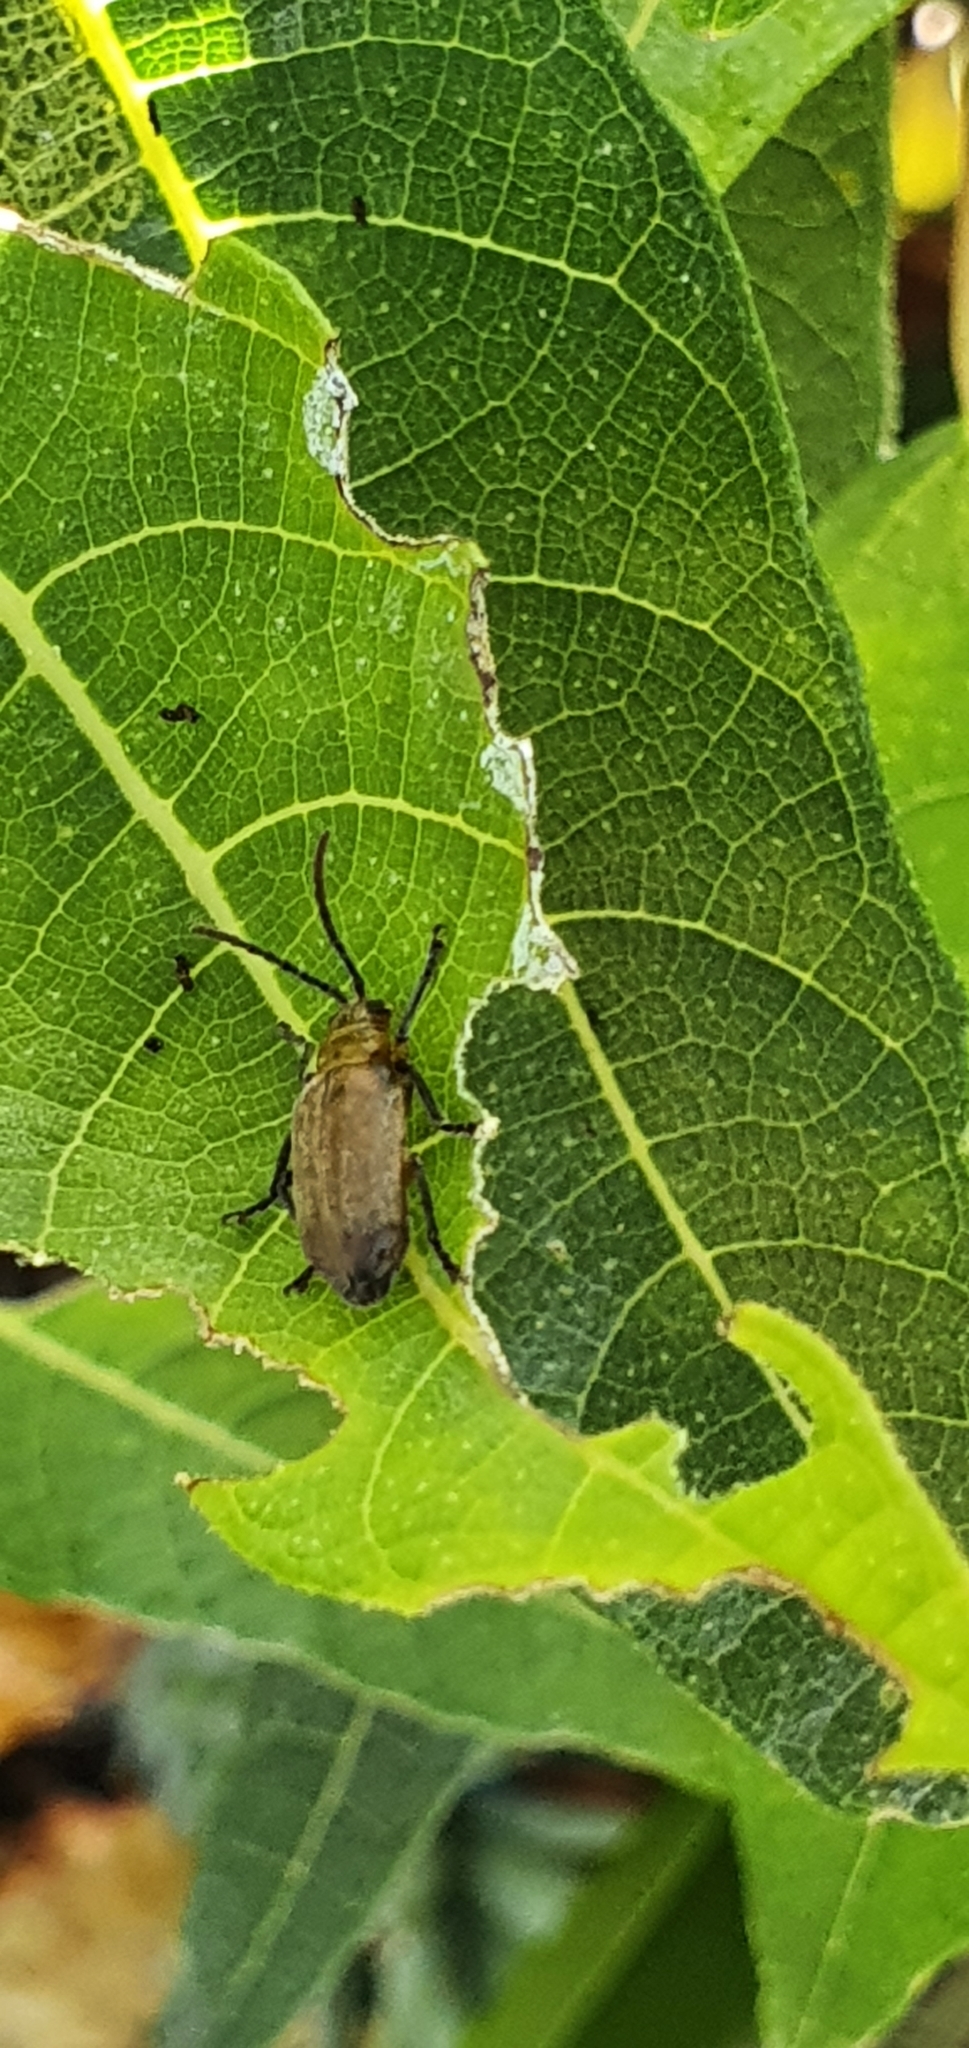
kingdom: Animalia
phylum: Arthropoda
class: Insecta
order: Coleoptera
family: Chrysomelidae
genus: Poneridia
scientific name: Poneridia semipullata
